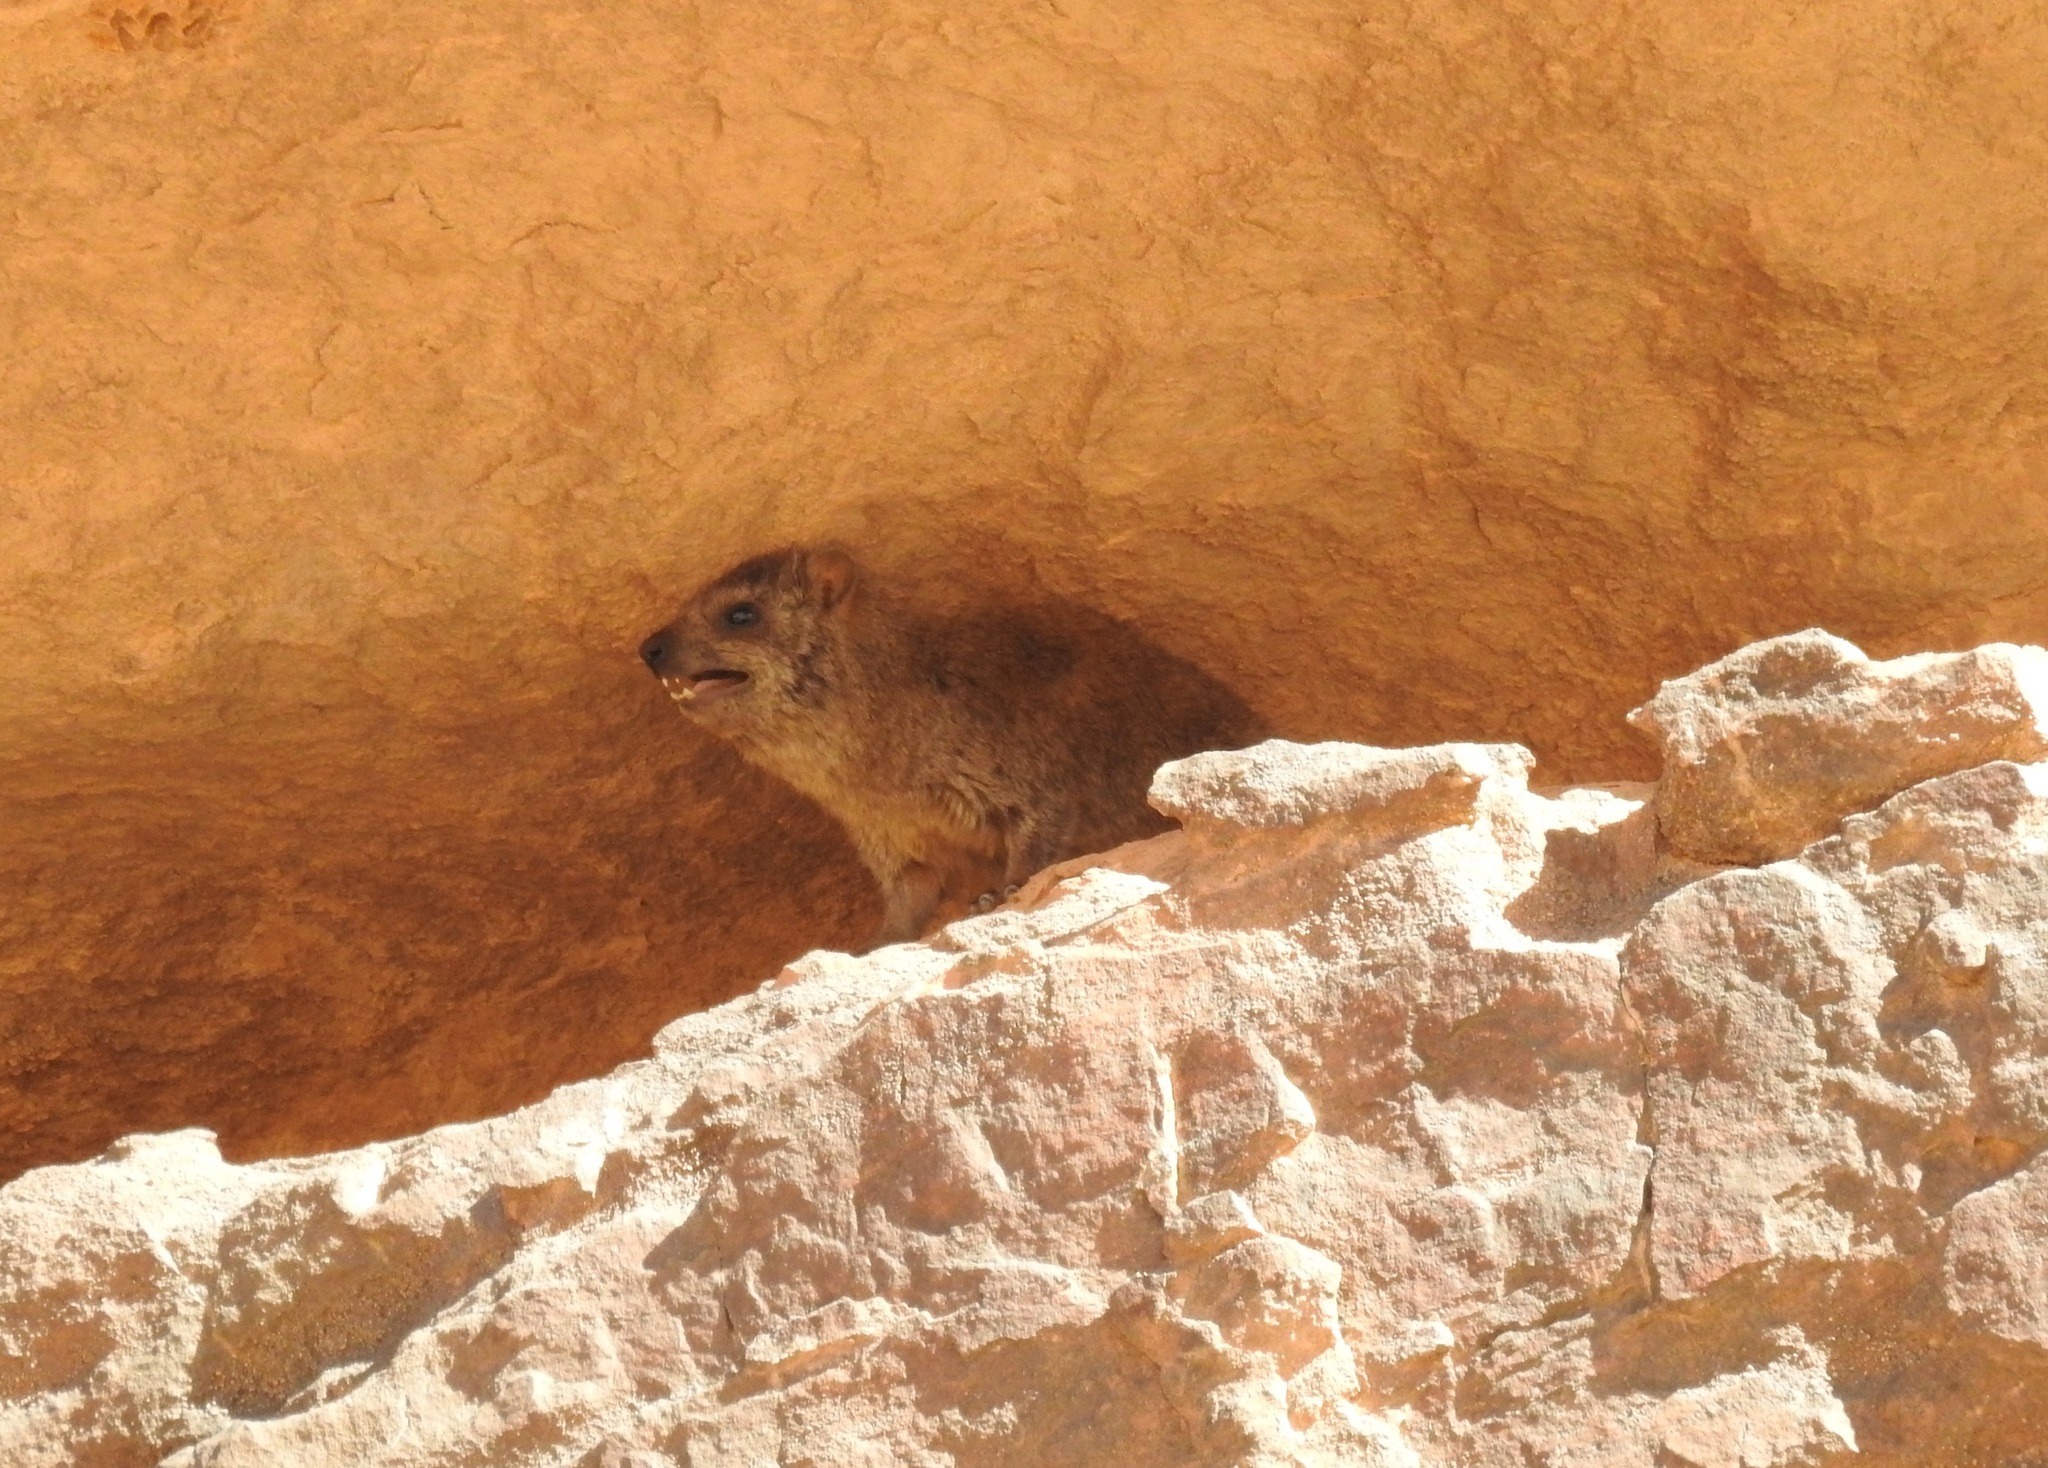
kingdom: Animalia
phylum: Chordata
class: Mammalia
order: Hyracoidea
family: Procaviidae
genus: Procavia
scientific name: Procavia capensis
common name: Rock hyrax
